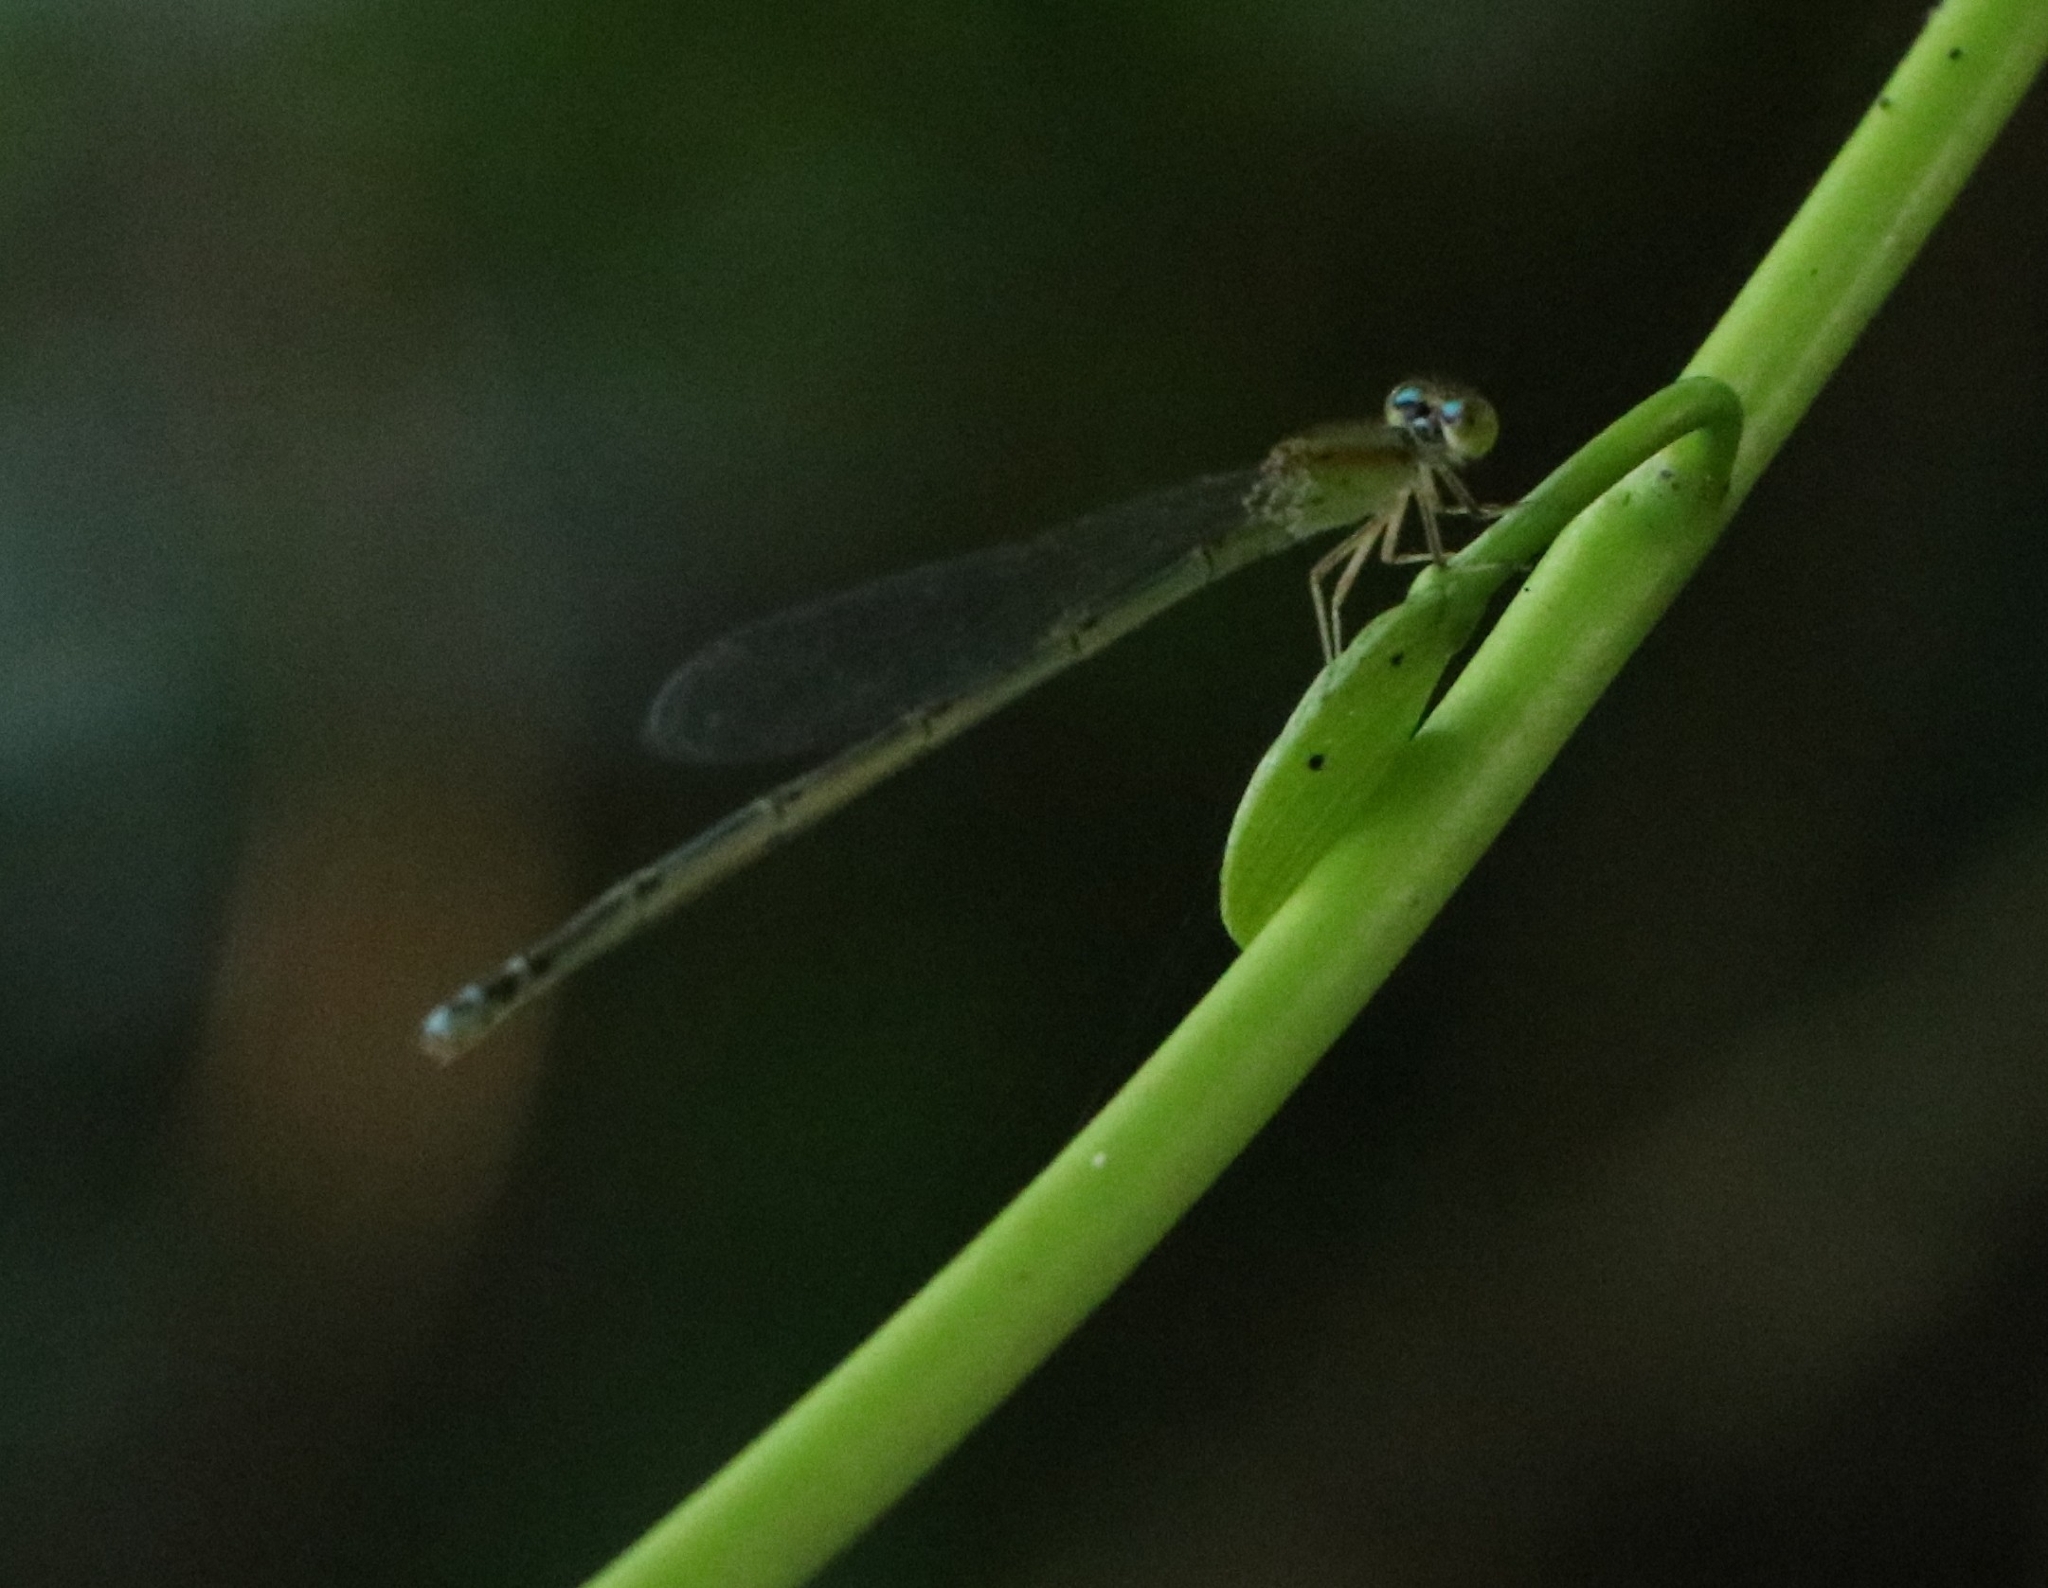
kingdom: Animalia
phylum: Arthropoda
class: Insecta
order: Odonata
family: Coenagrionidae
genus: Pseudagrion
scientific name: Pseudagrion microcephalum
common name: Blue riverdamsel
